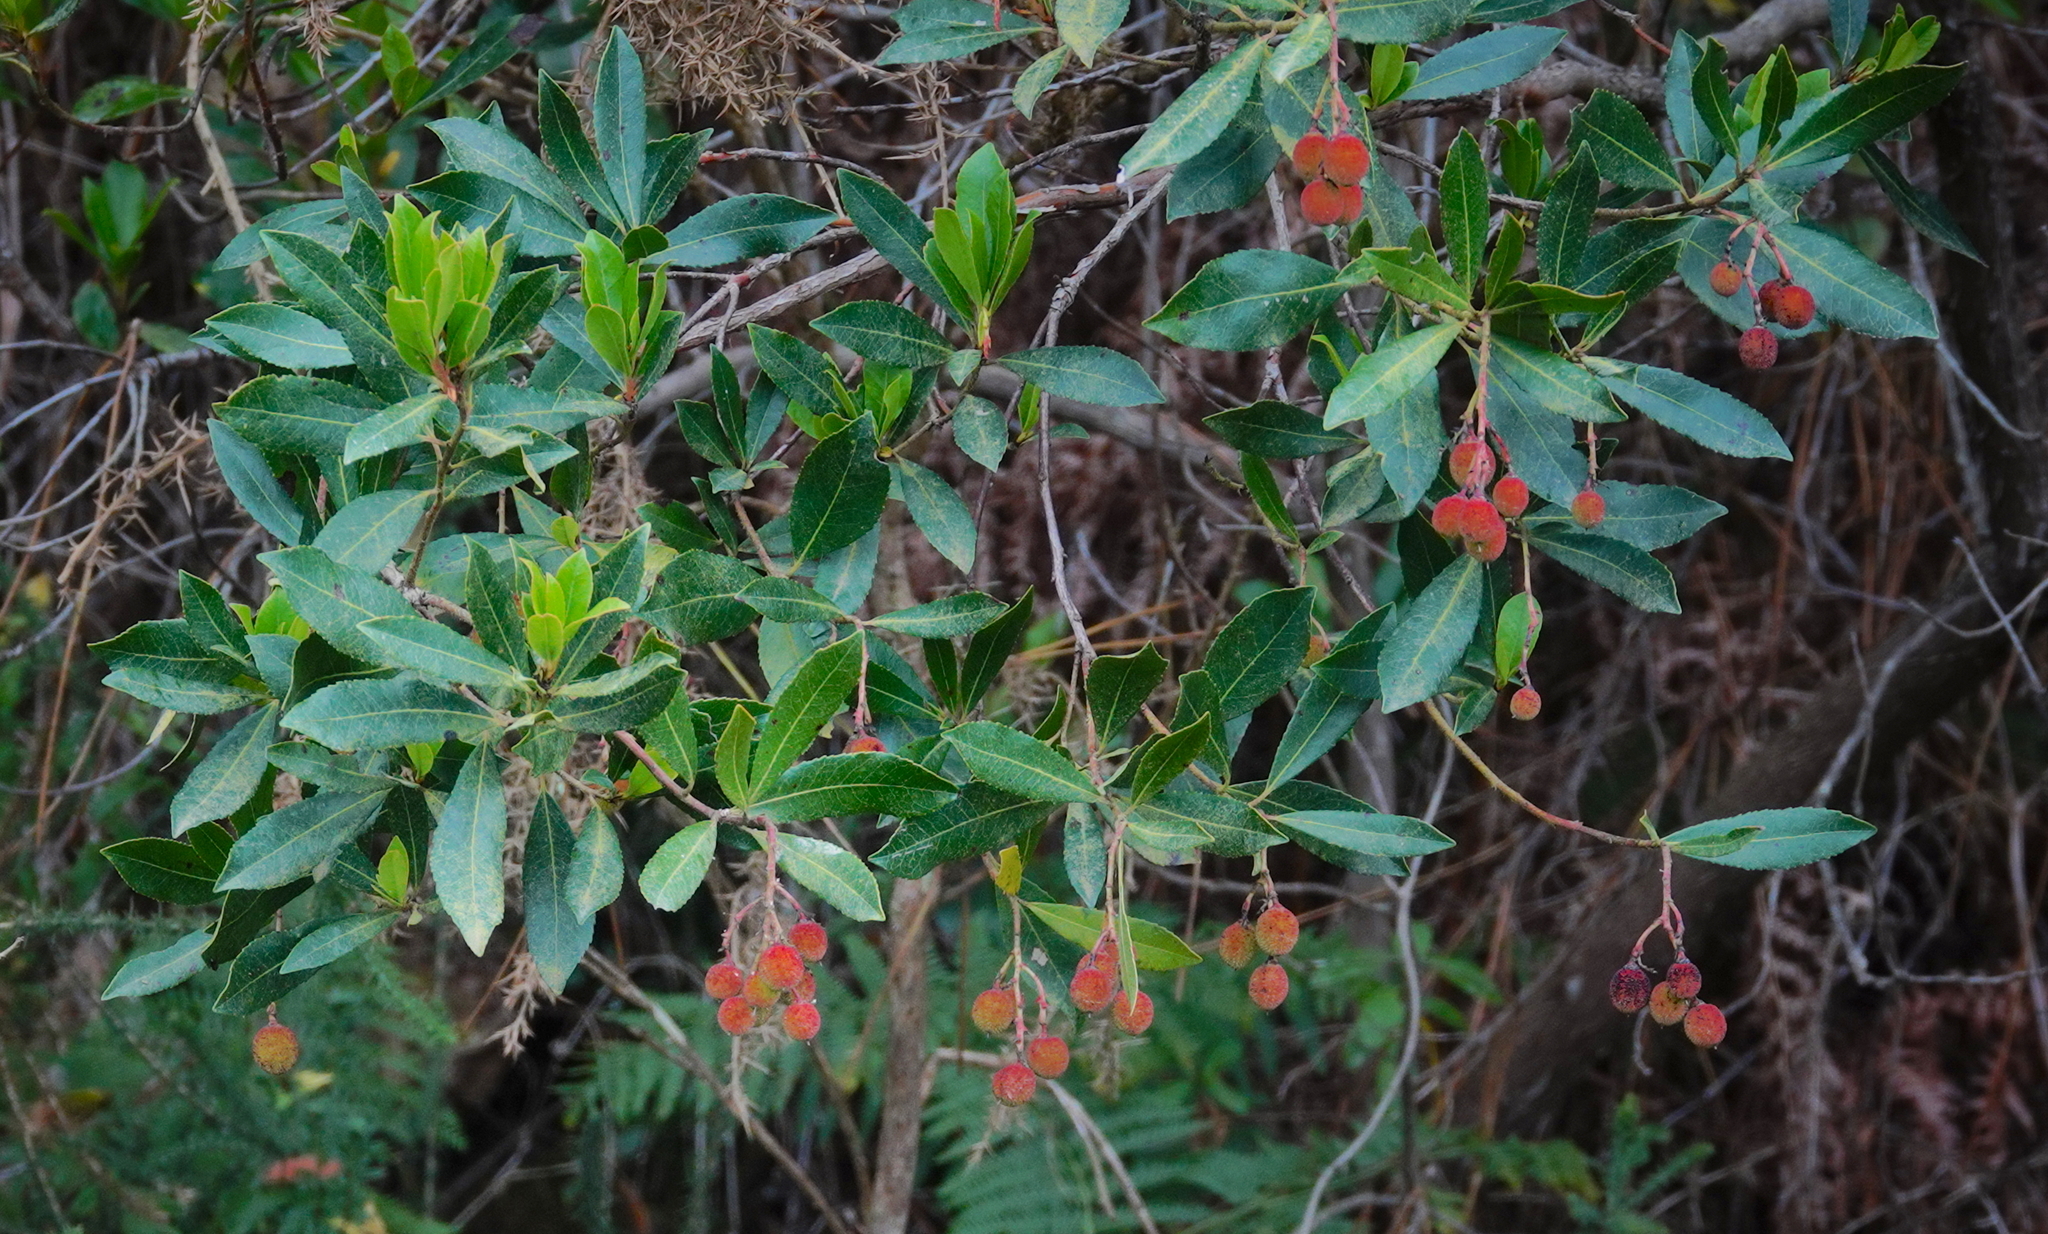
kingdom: Plantae
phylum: Tracheophyta
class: Magnoliopsida
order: Ericales
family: Ericaceae
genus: Arbutus
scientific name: Arbutus unedo
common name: Strawberry-tree
